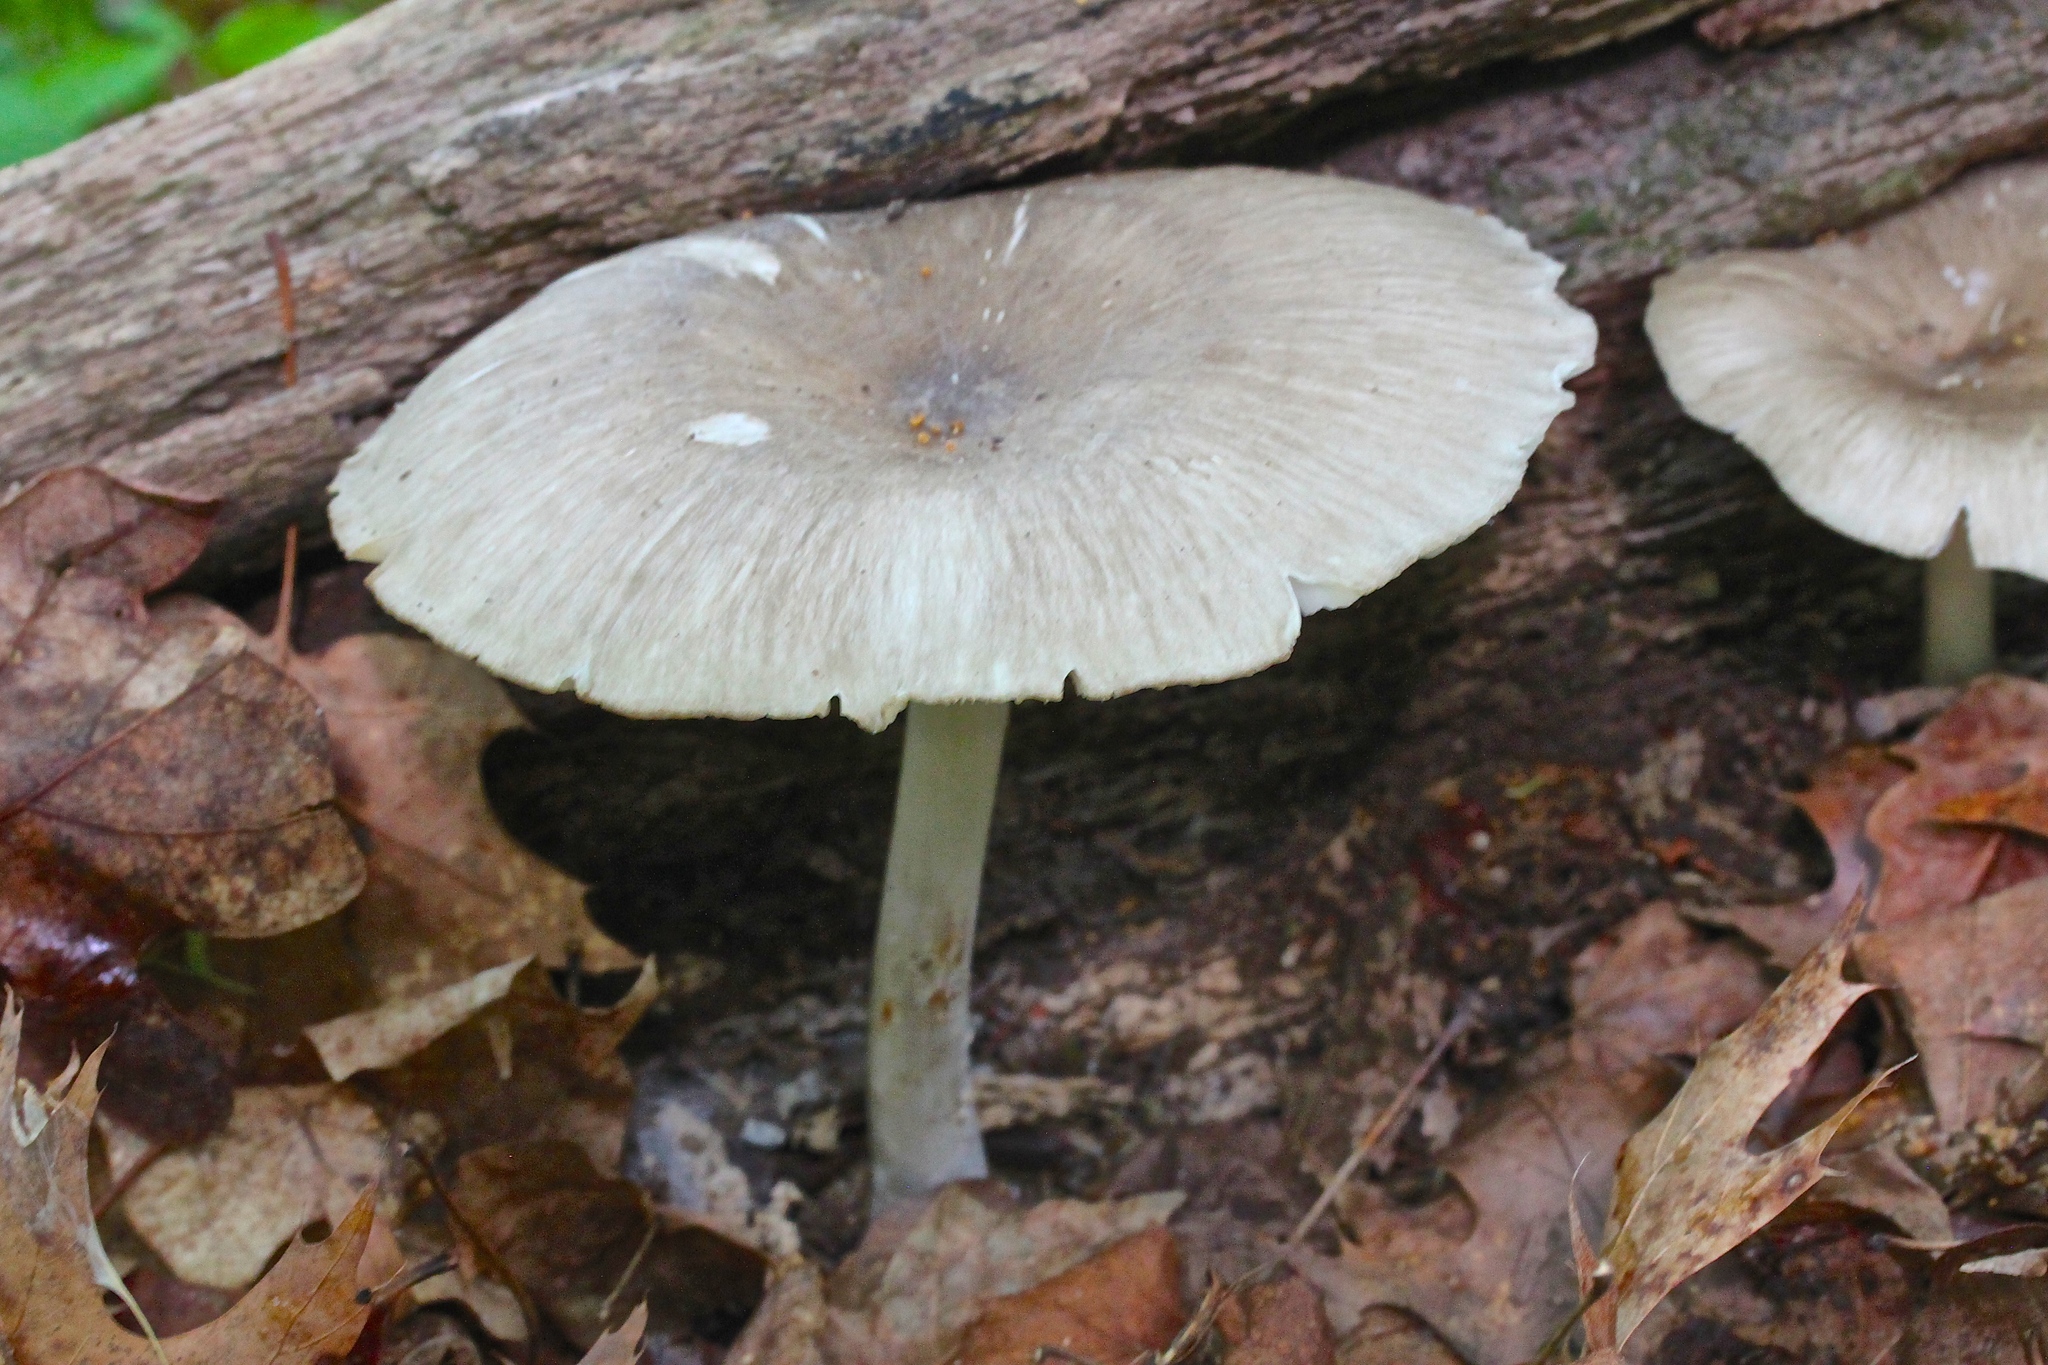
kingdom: Fungi
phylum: Basidiomycota
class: Agaricomycetes
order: Agaricales
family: Tricholomataceae
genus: Megacollybia
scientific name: Megacollybia rodmanii
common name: Eastern american platterful mushroom
